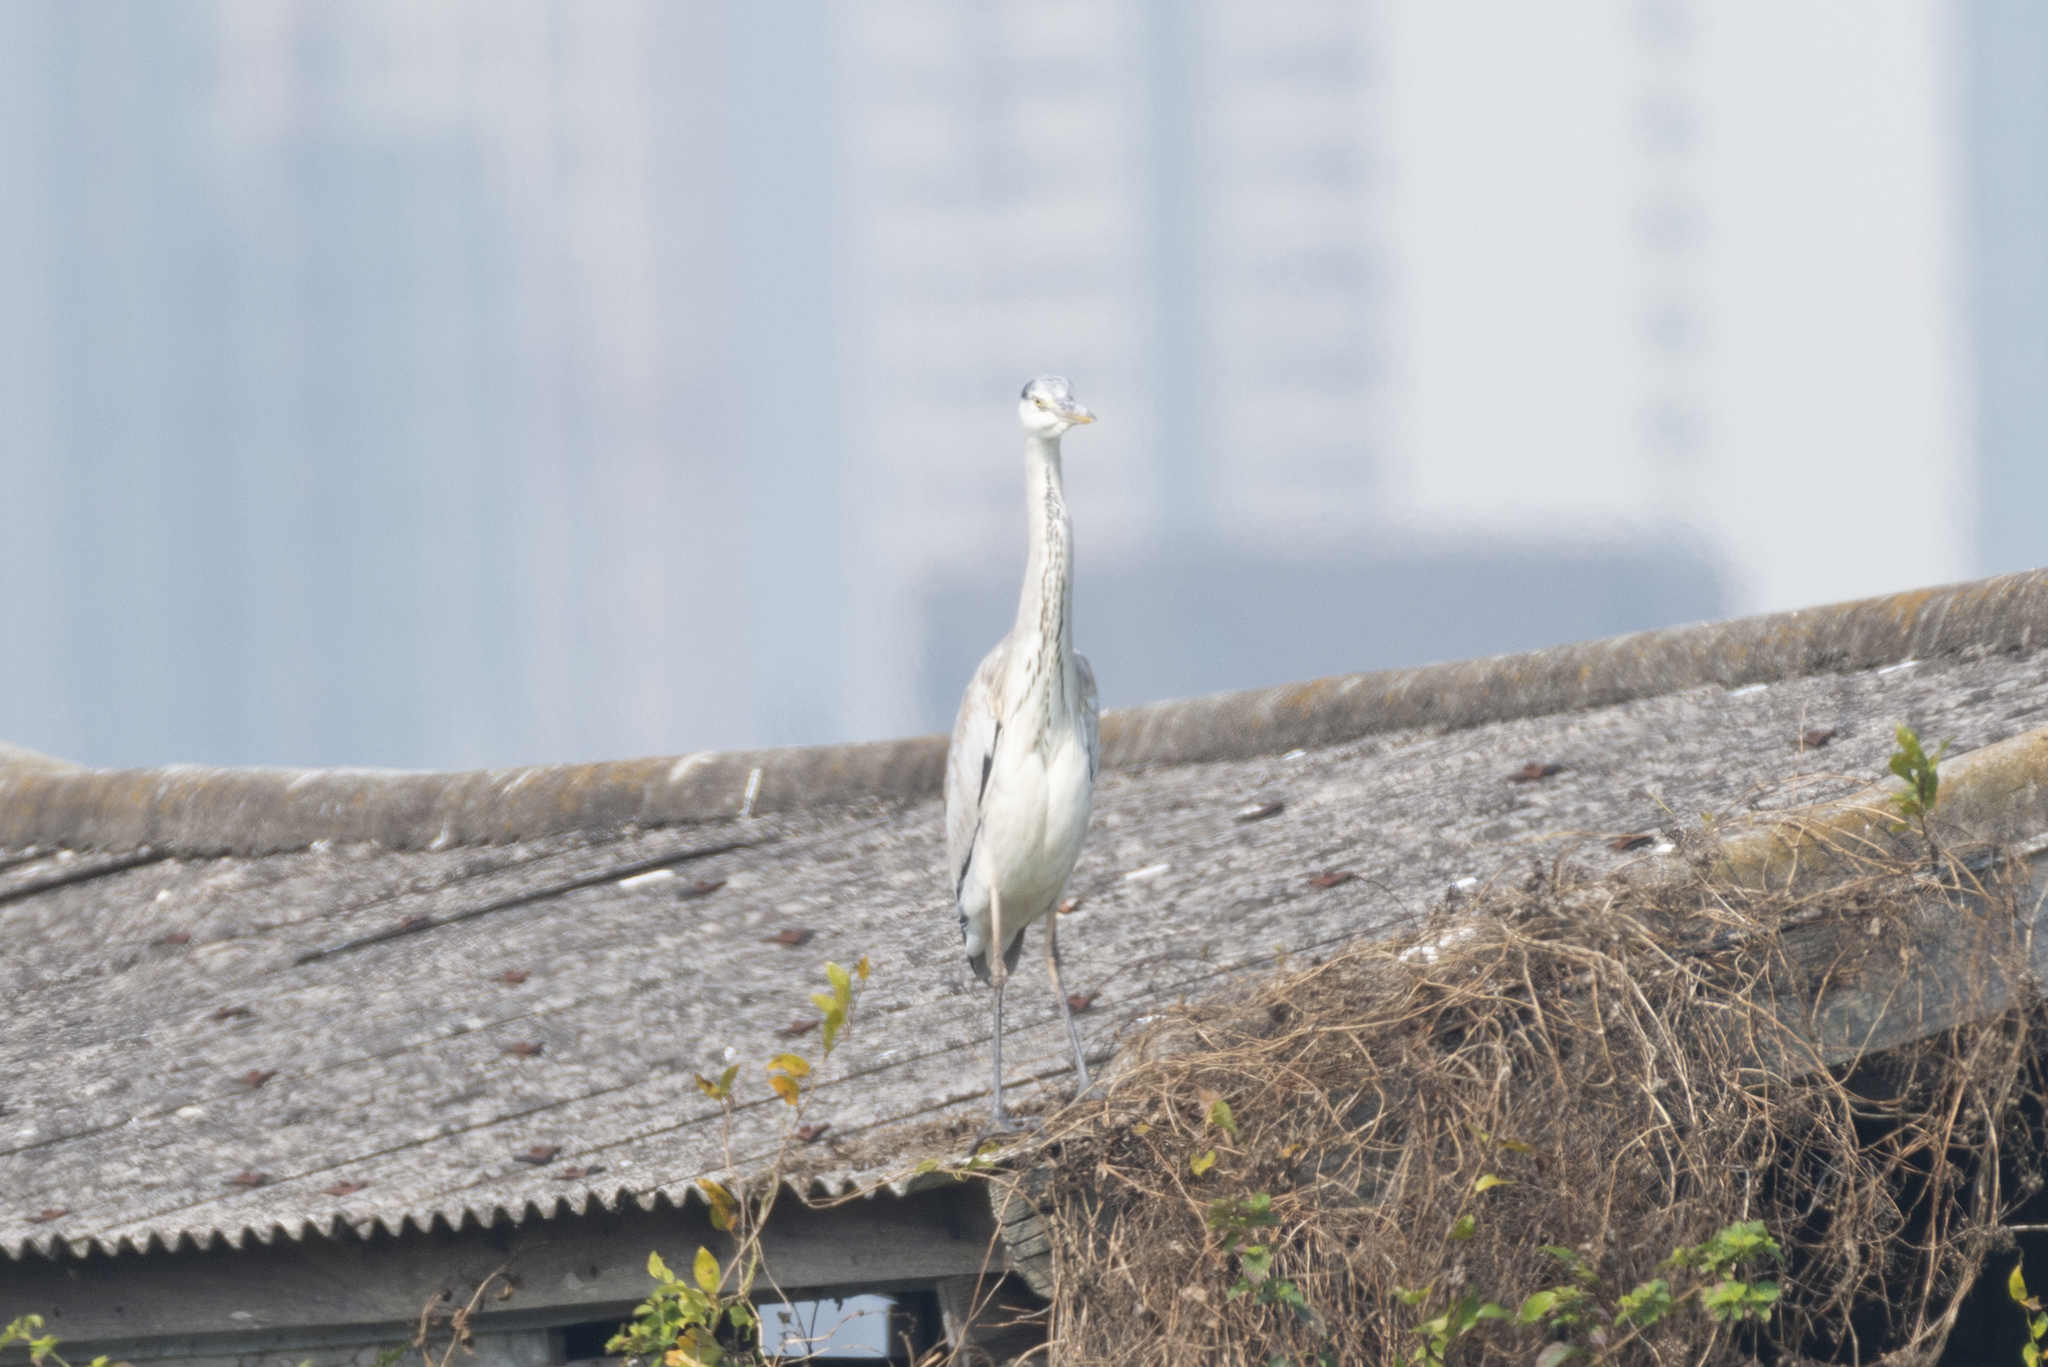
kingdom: Animalia
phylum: Chordata
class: Aves
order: Pelecaniformes
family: Ardeidae
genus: Ardea
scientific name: Ardea cinerea
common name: Grey heron
